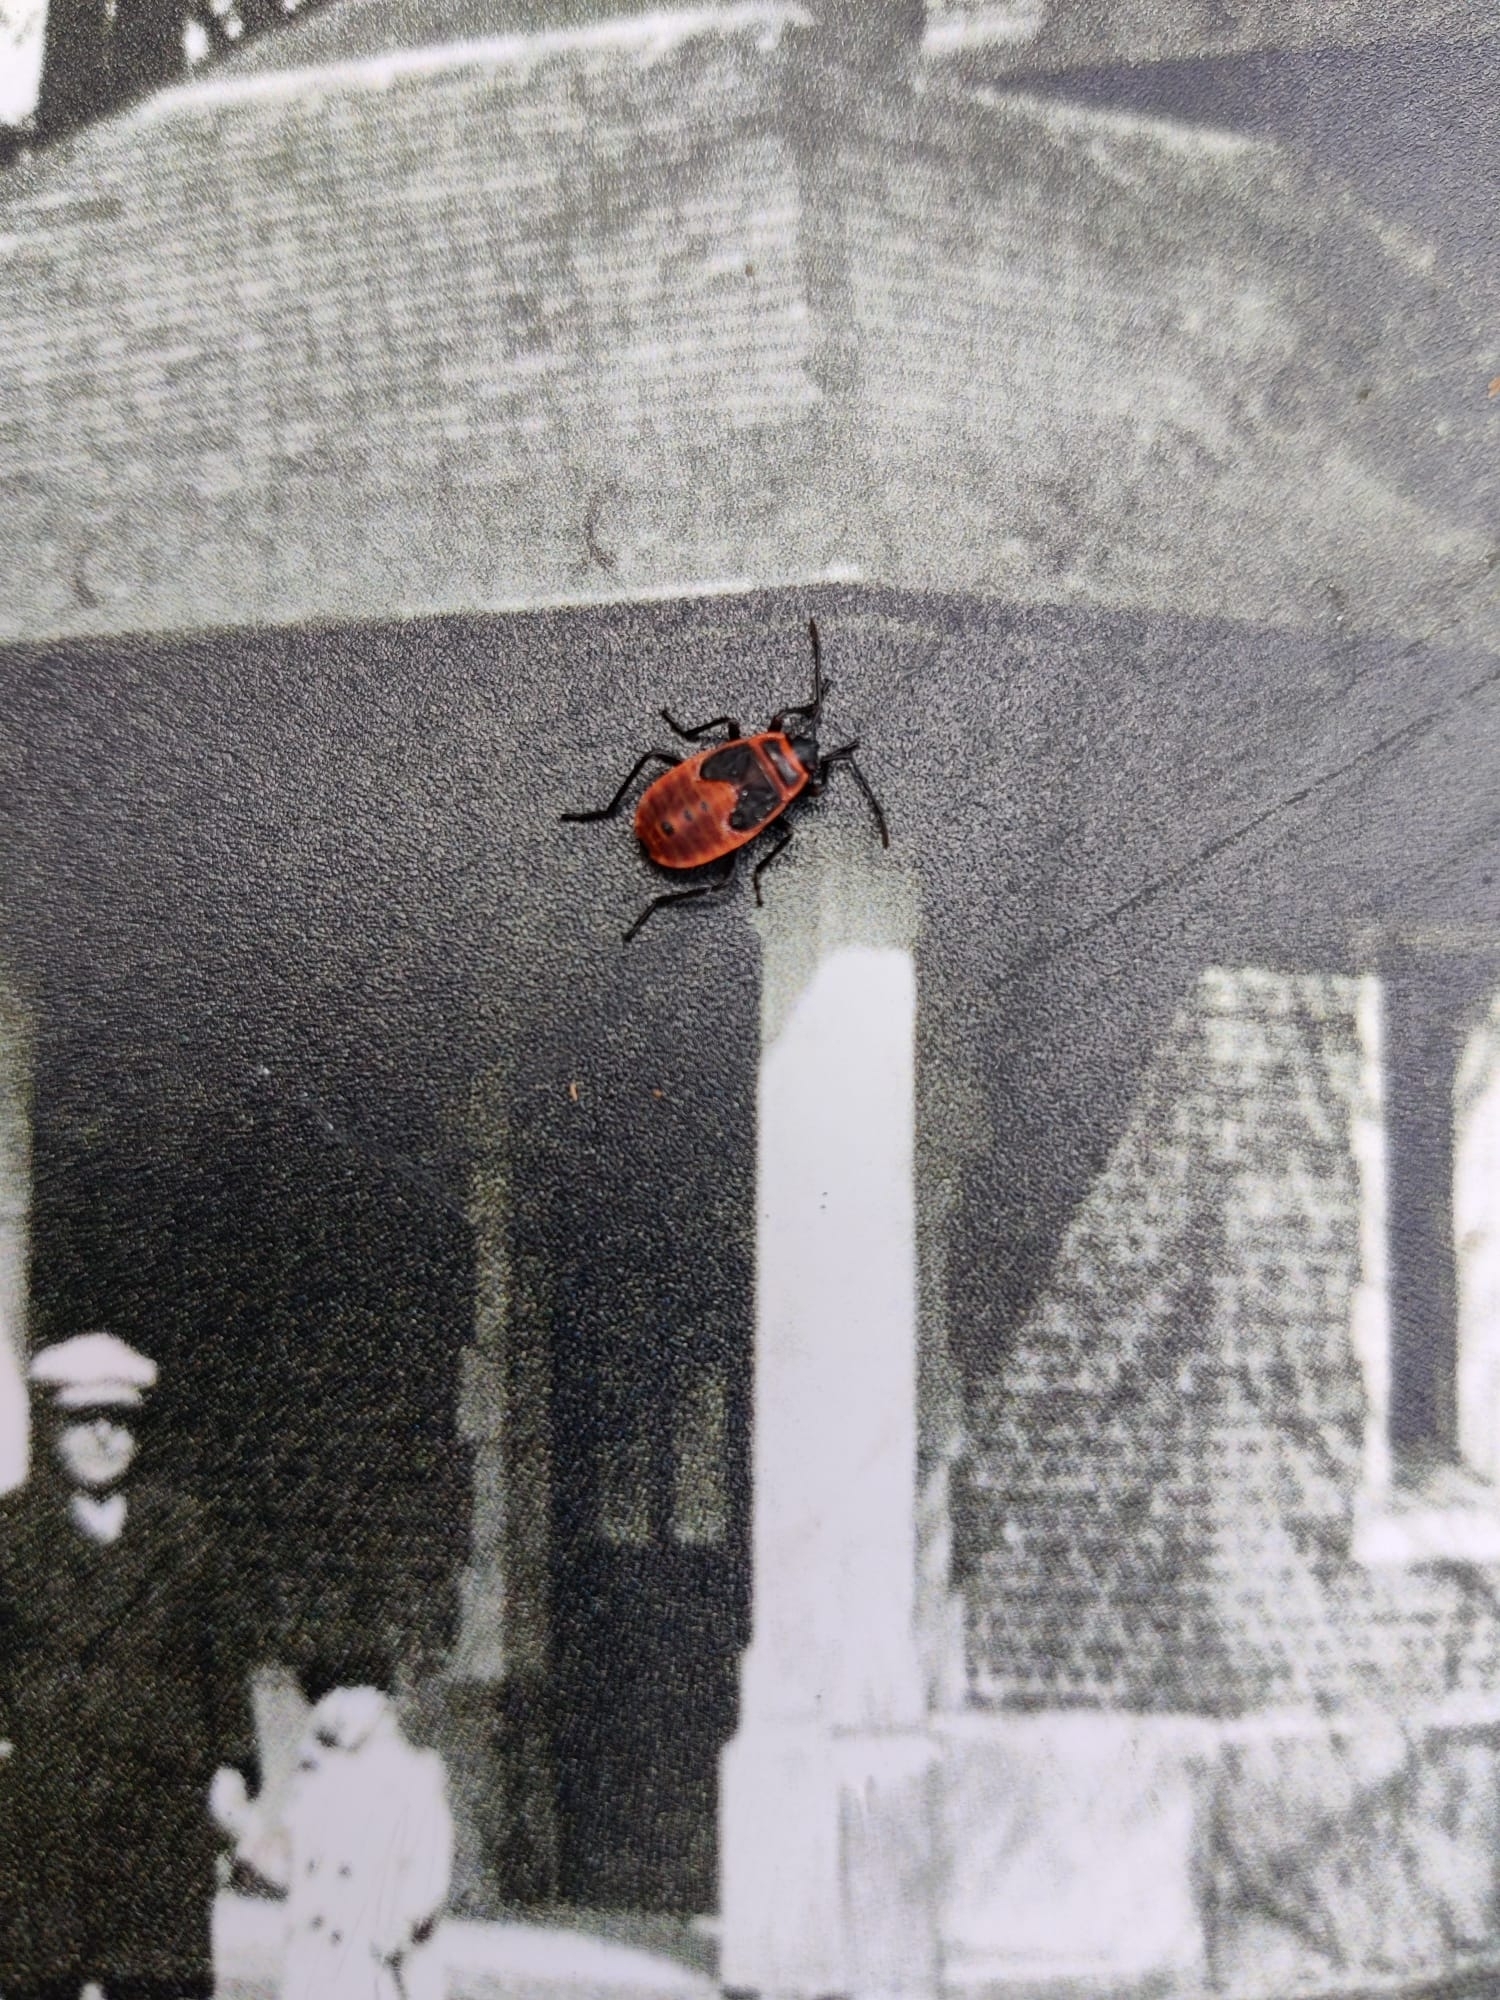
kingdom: Animalia
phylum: Arthropoda
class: Insecta
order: Hemiptera
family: Pyrrhocoridae
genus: Pyrrhocoris
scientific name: Pyrrhocoris apterus
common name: Firebug
